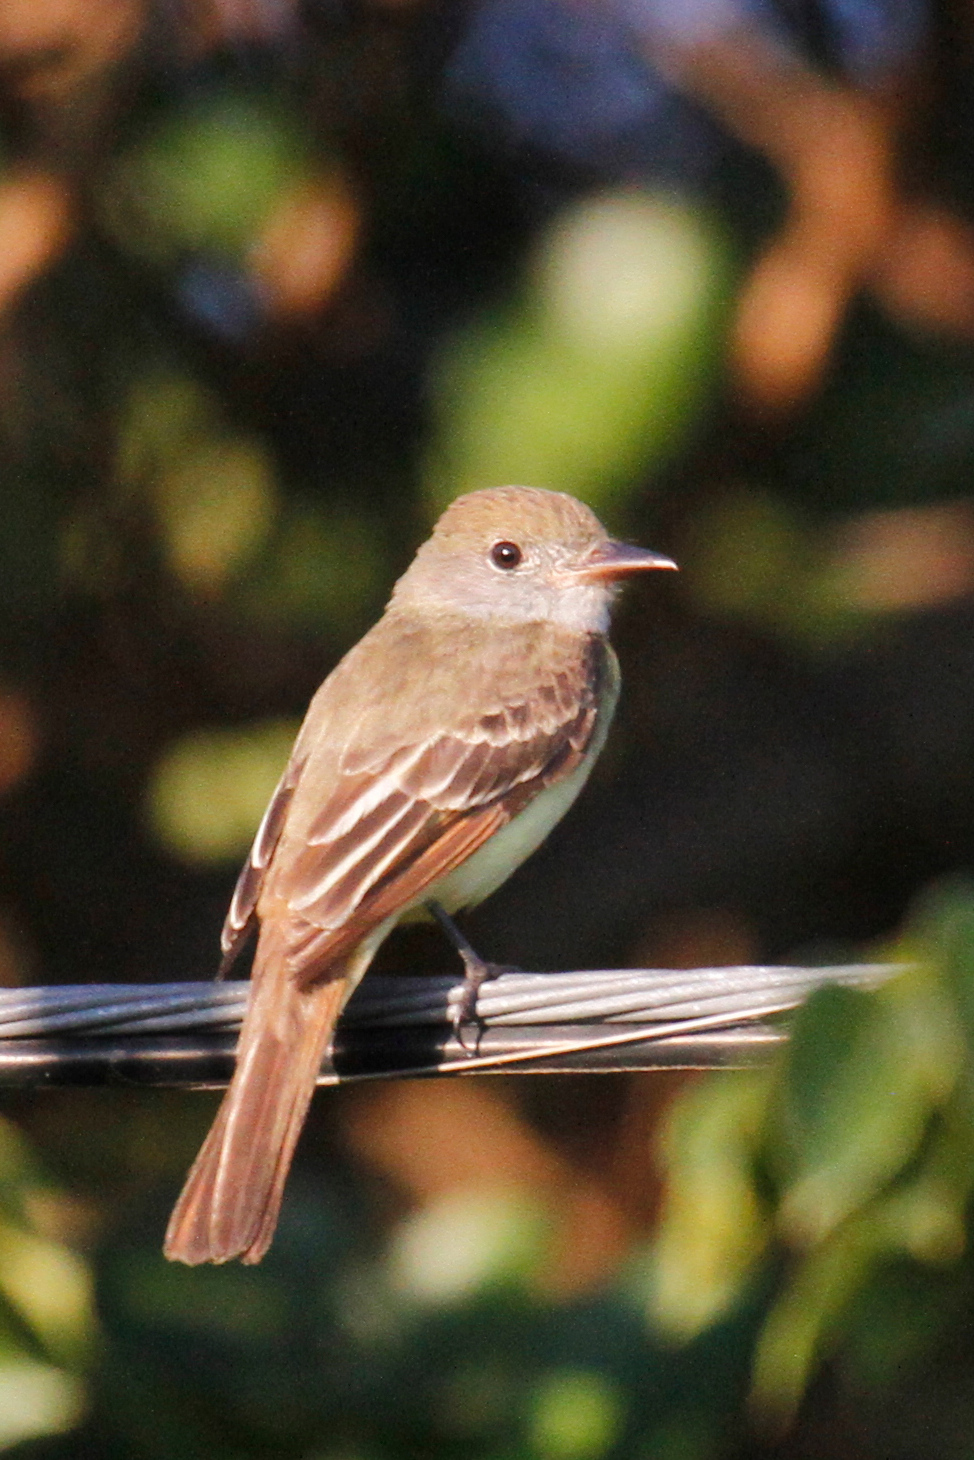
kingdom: Animalia
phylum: Chordata
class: Aves
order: Passeriformes
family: Tyrannidae
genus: Myiarchus
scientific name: Myiarchus tyrannulus
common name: Brown-crested flycatcher
